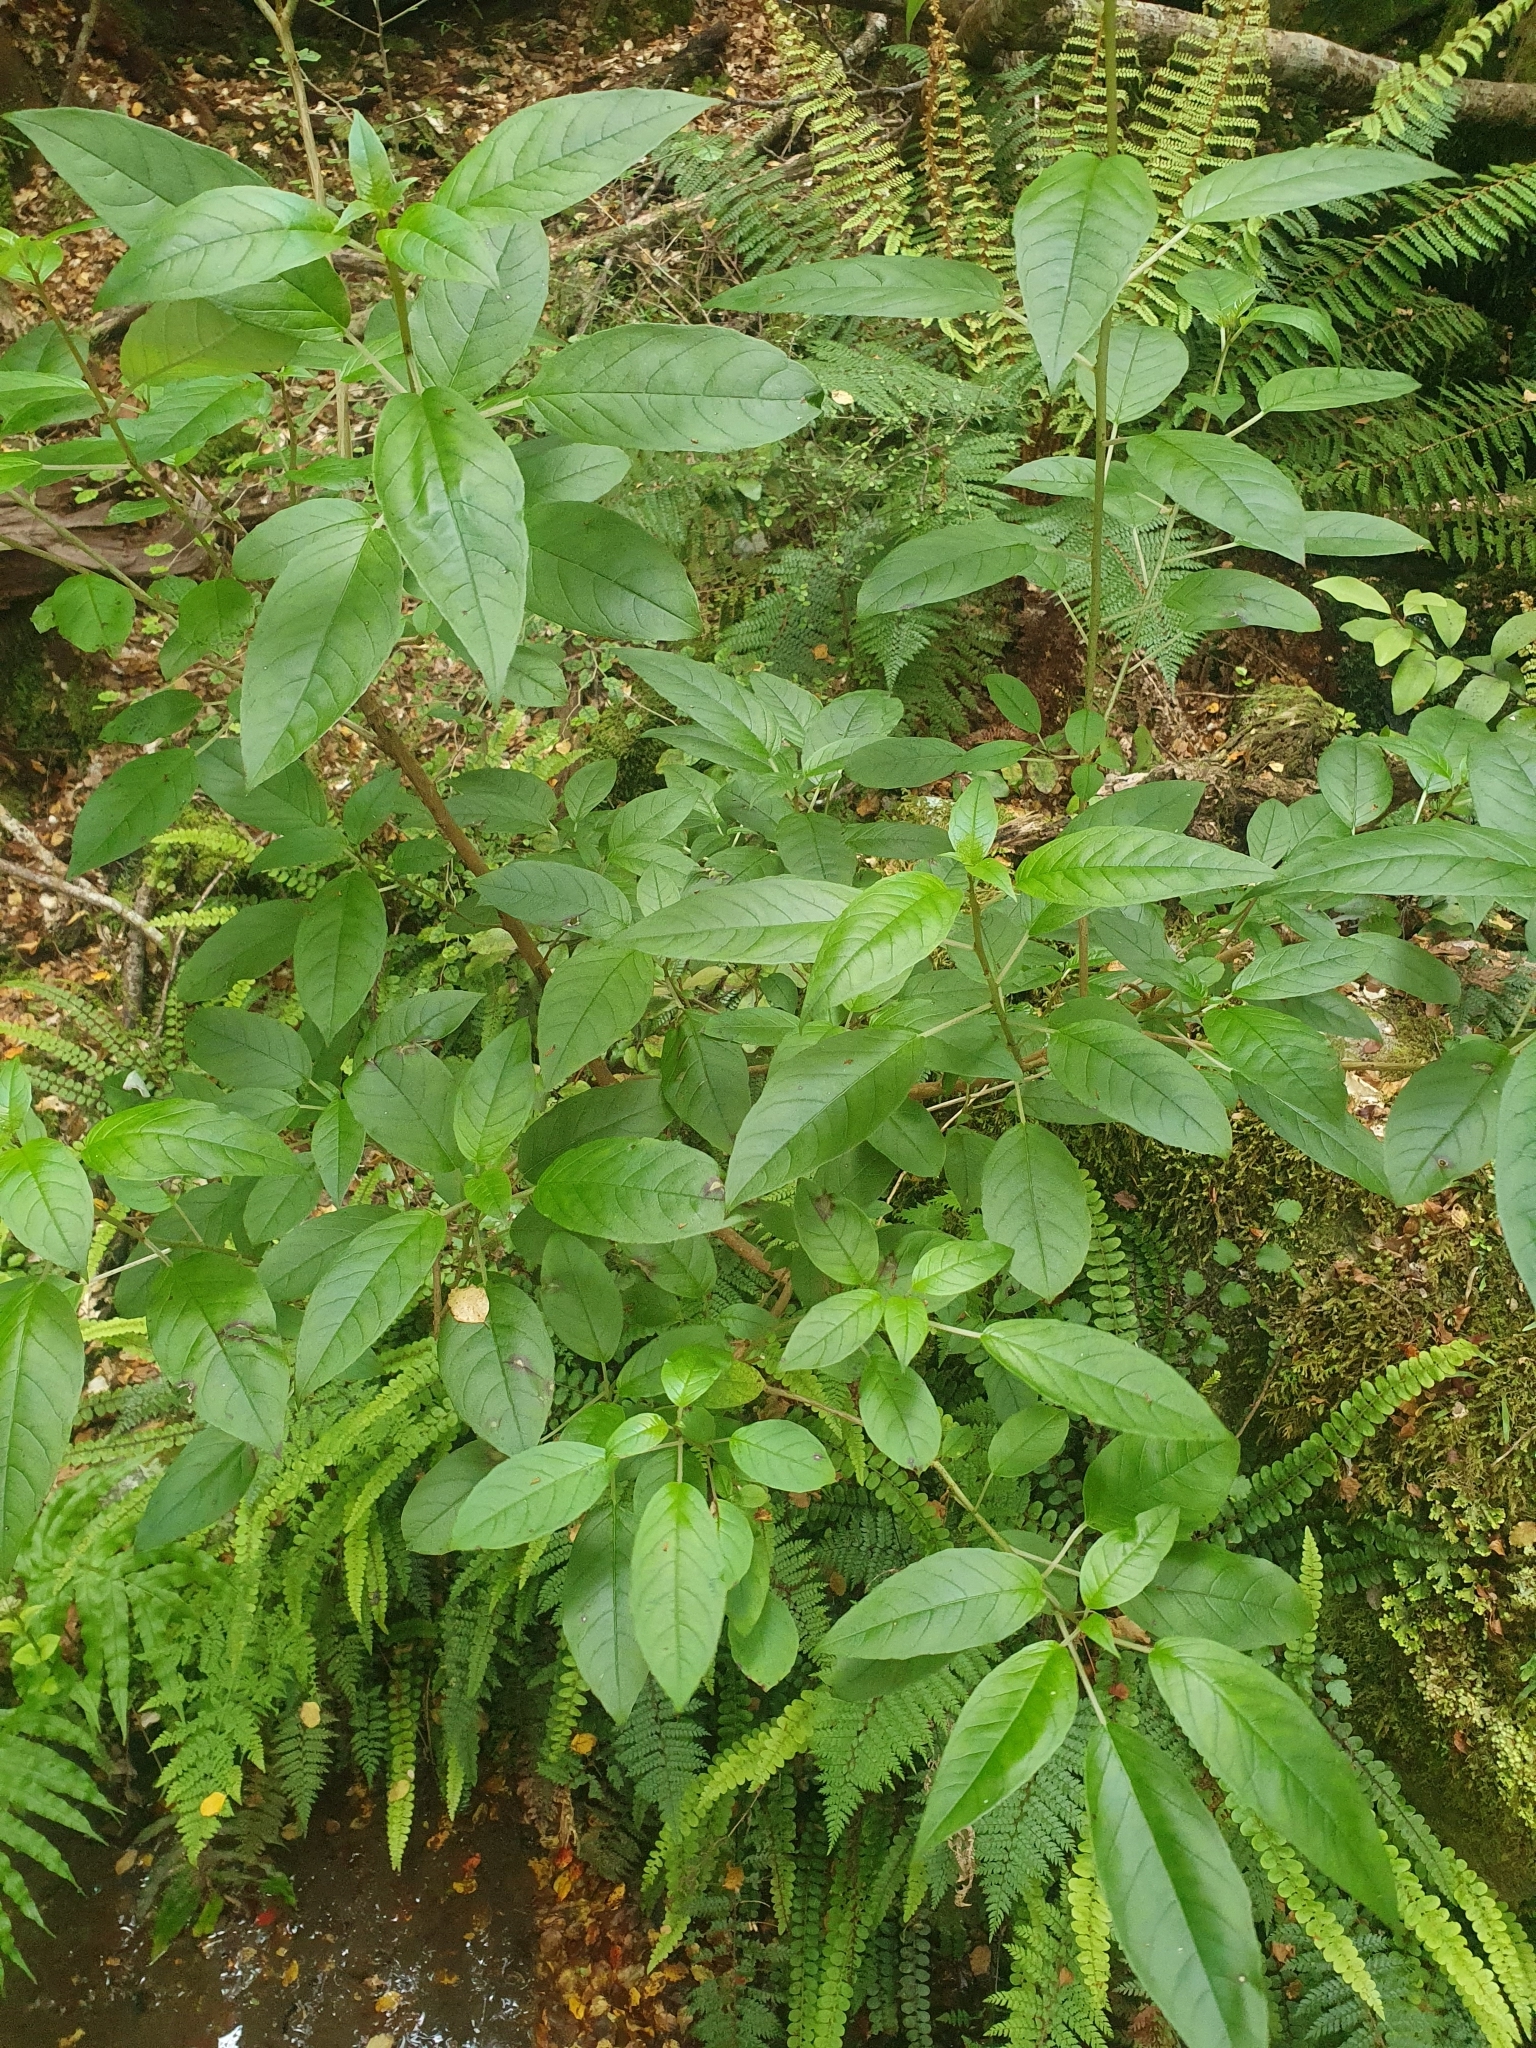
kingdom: Plantae
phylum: Tracheophyta
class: Magnoliopsida
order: Myrtales
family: Onagraceae
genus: Fuchsia
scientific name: Fuchsia excorticata
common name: Tree fuchsia
